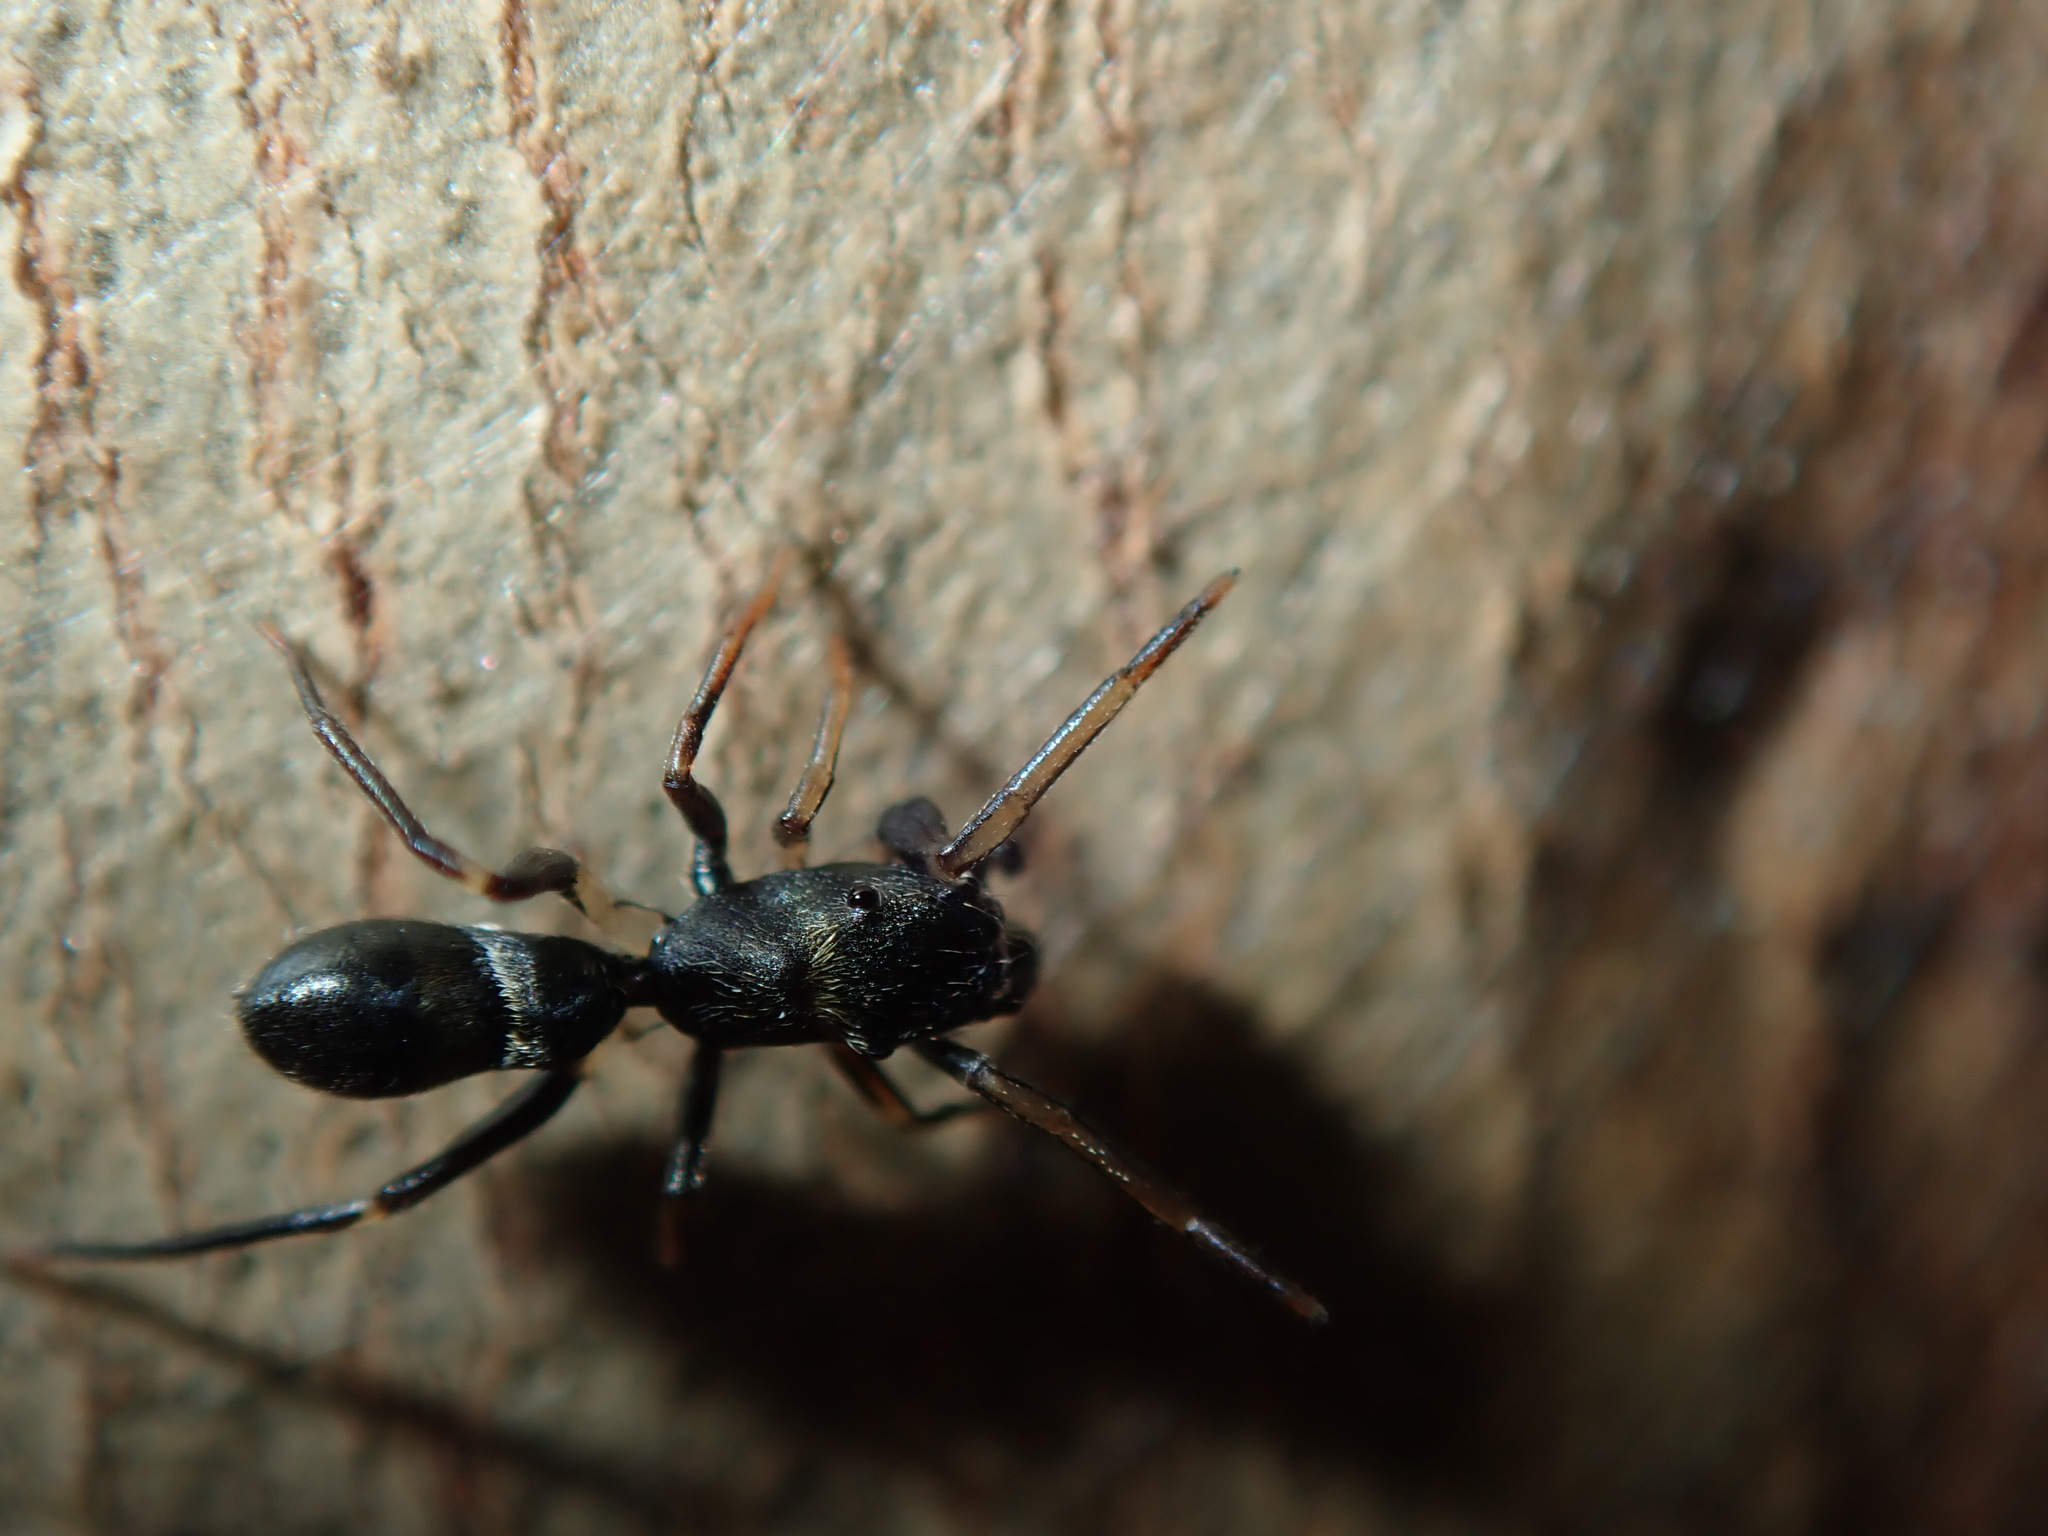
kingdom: Animalia
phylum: Arthropoda
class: Arachnida
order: Araneae
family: Salticidae
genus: Myrmarachne
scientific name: Myrmarachne erythrocephala
